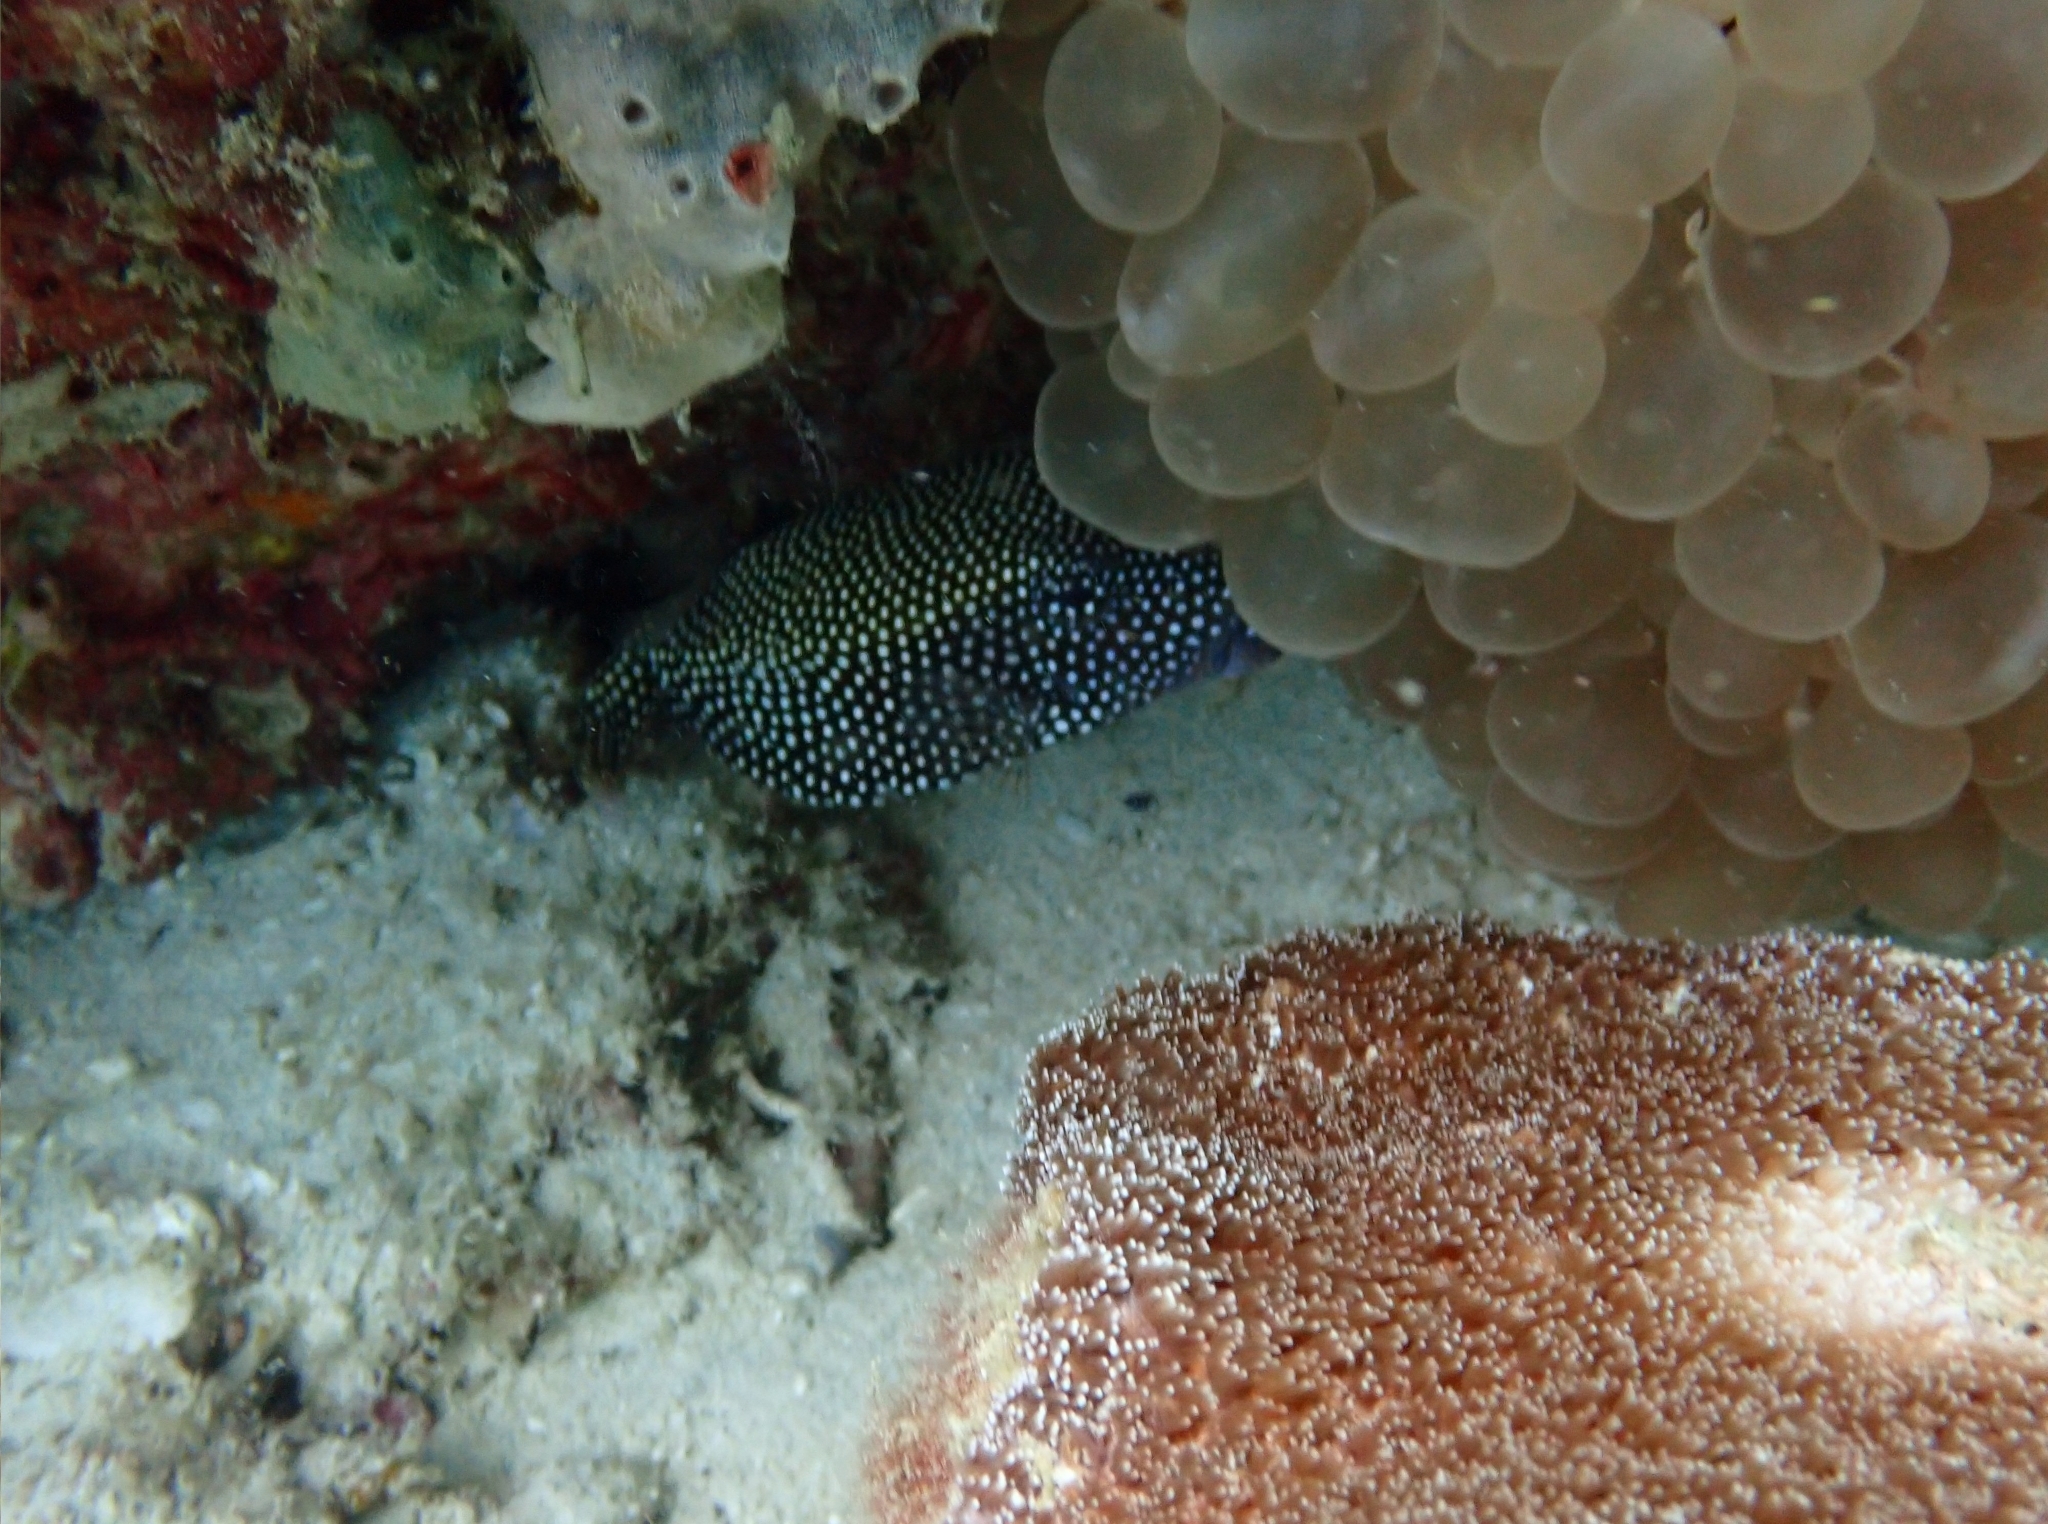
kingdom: Animalia
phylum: Chordata
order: Tetraodontiformes
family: Ostraciidae
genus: Ostracion
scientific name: Ostracion meleagris
